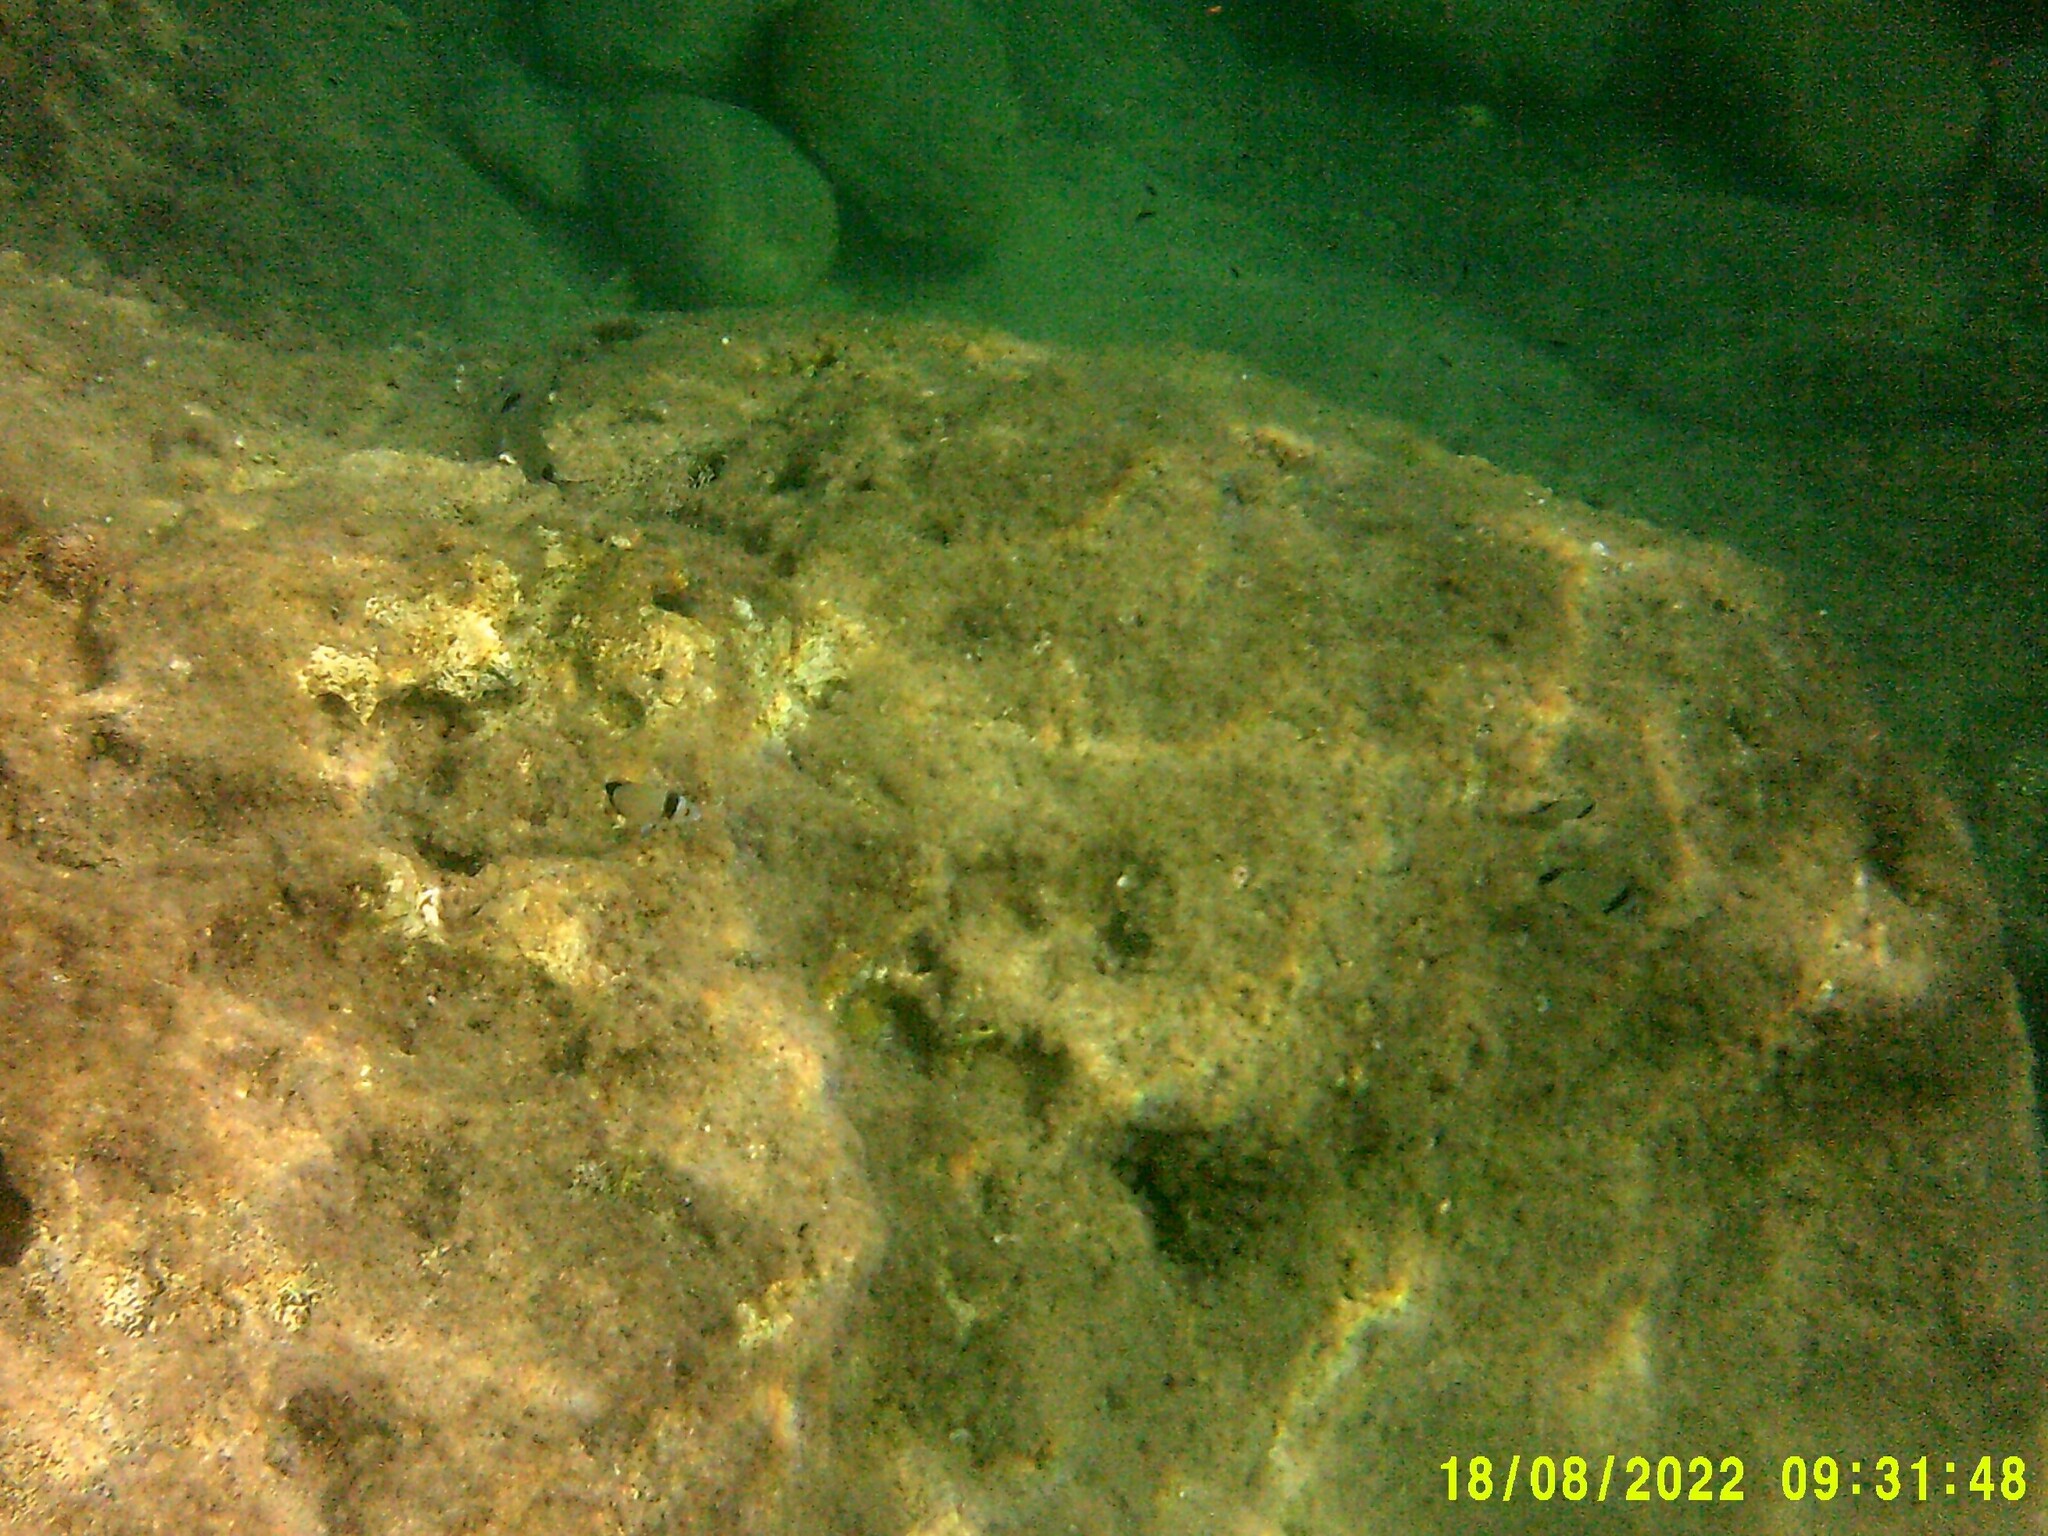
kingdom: Animalia
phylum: Chordata
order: Perciformes
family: Sparidae
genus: Diplodus
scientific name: Diplodus vulgaris
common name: Common two-banded seabream
